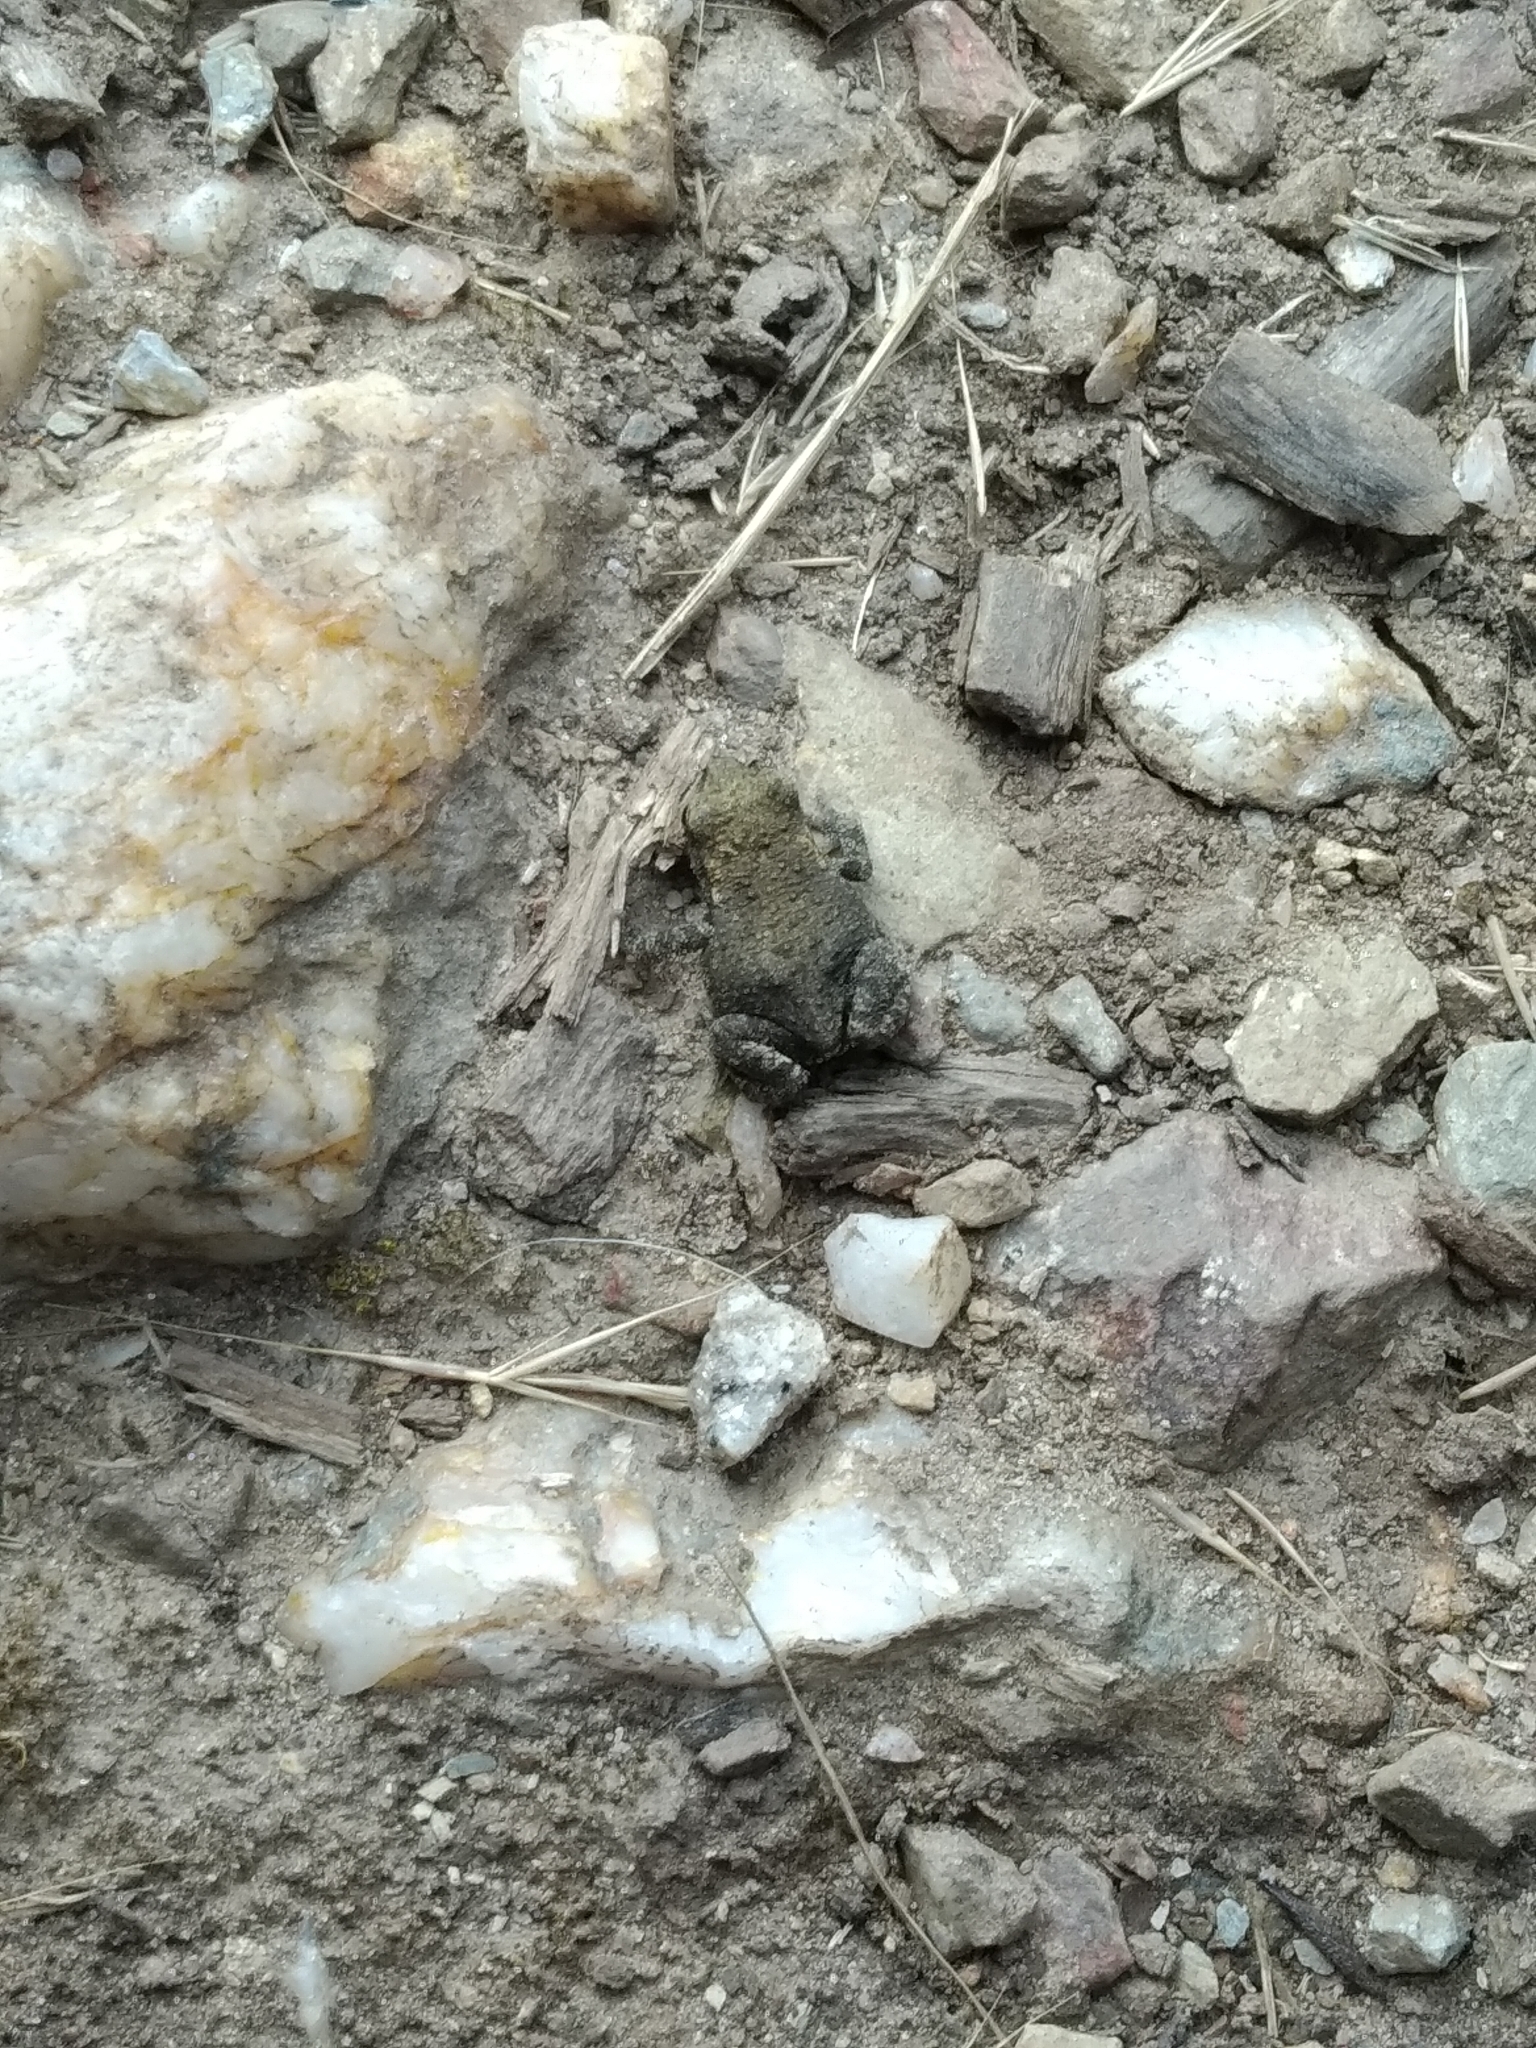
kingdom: Animalia
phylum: Chordata
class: Amphibia
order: Anura
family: Bufonidae
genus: Bufo
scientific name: Bufo spinosus
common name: Western common toad
